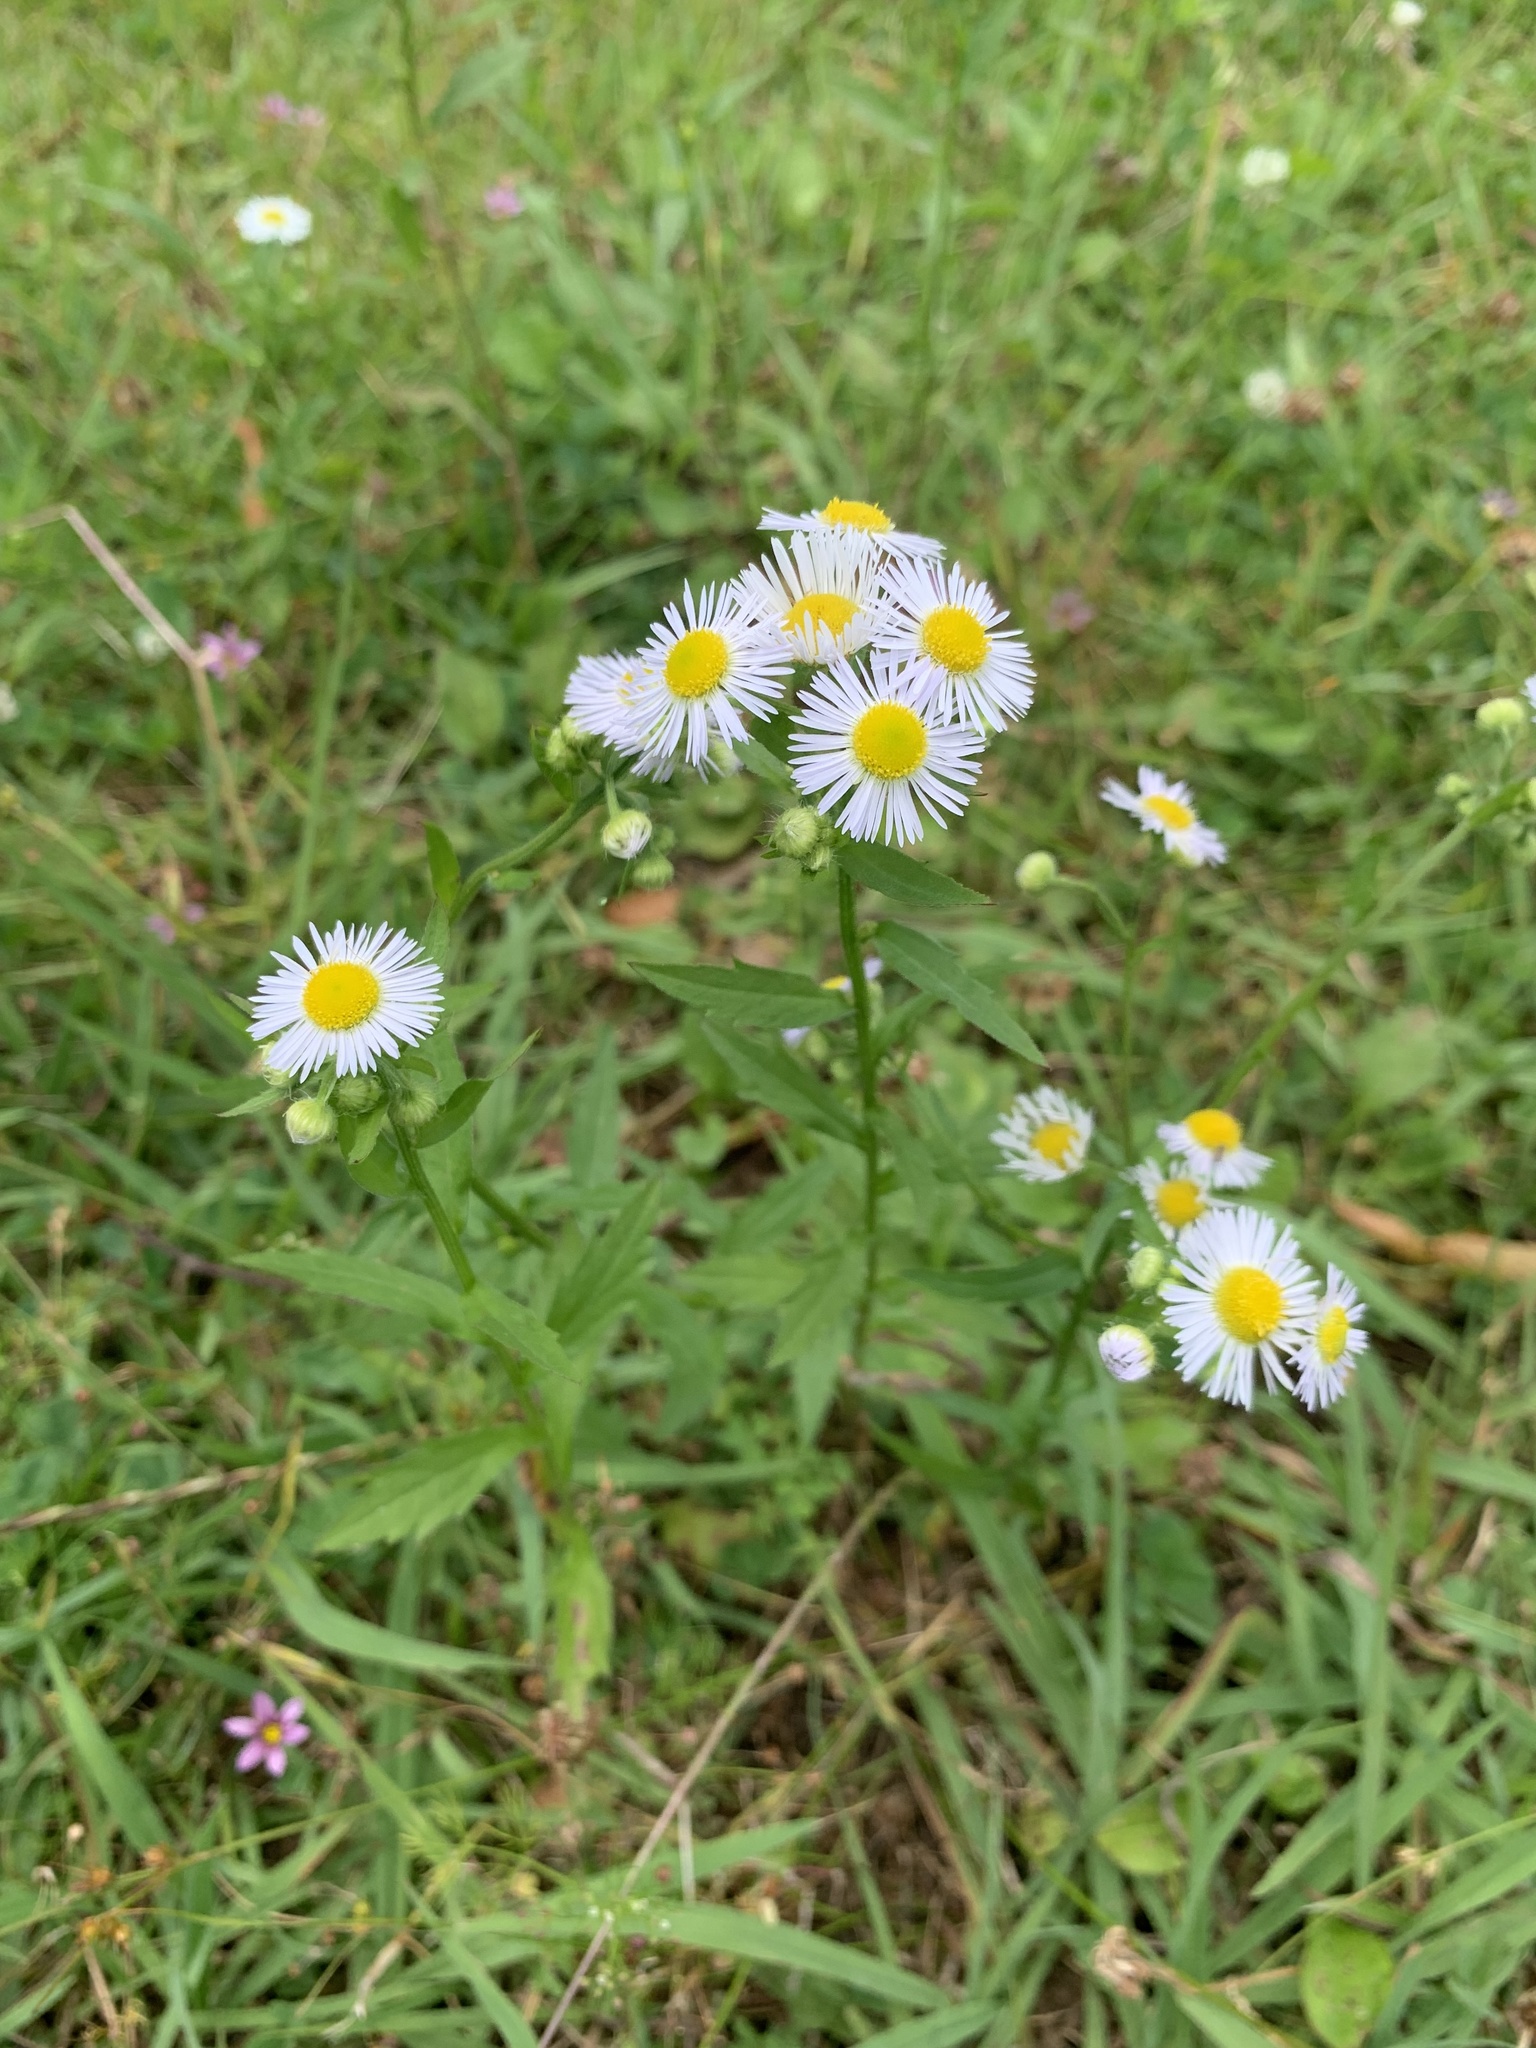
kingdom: Plantae
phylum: Tracheophyta
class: Magnoliopsida
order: Asterales
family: Asteraceae
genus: Erigeron
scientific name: Erigeron annuus
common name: Tall fleabane
